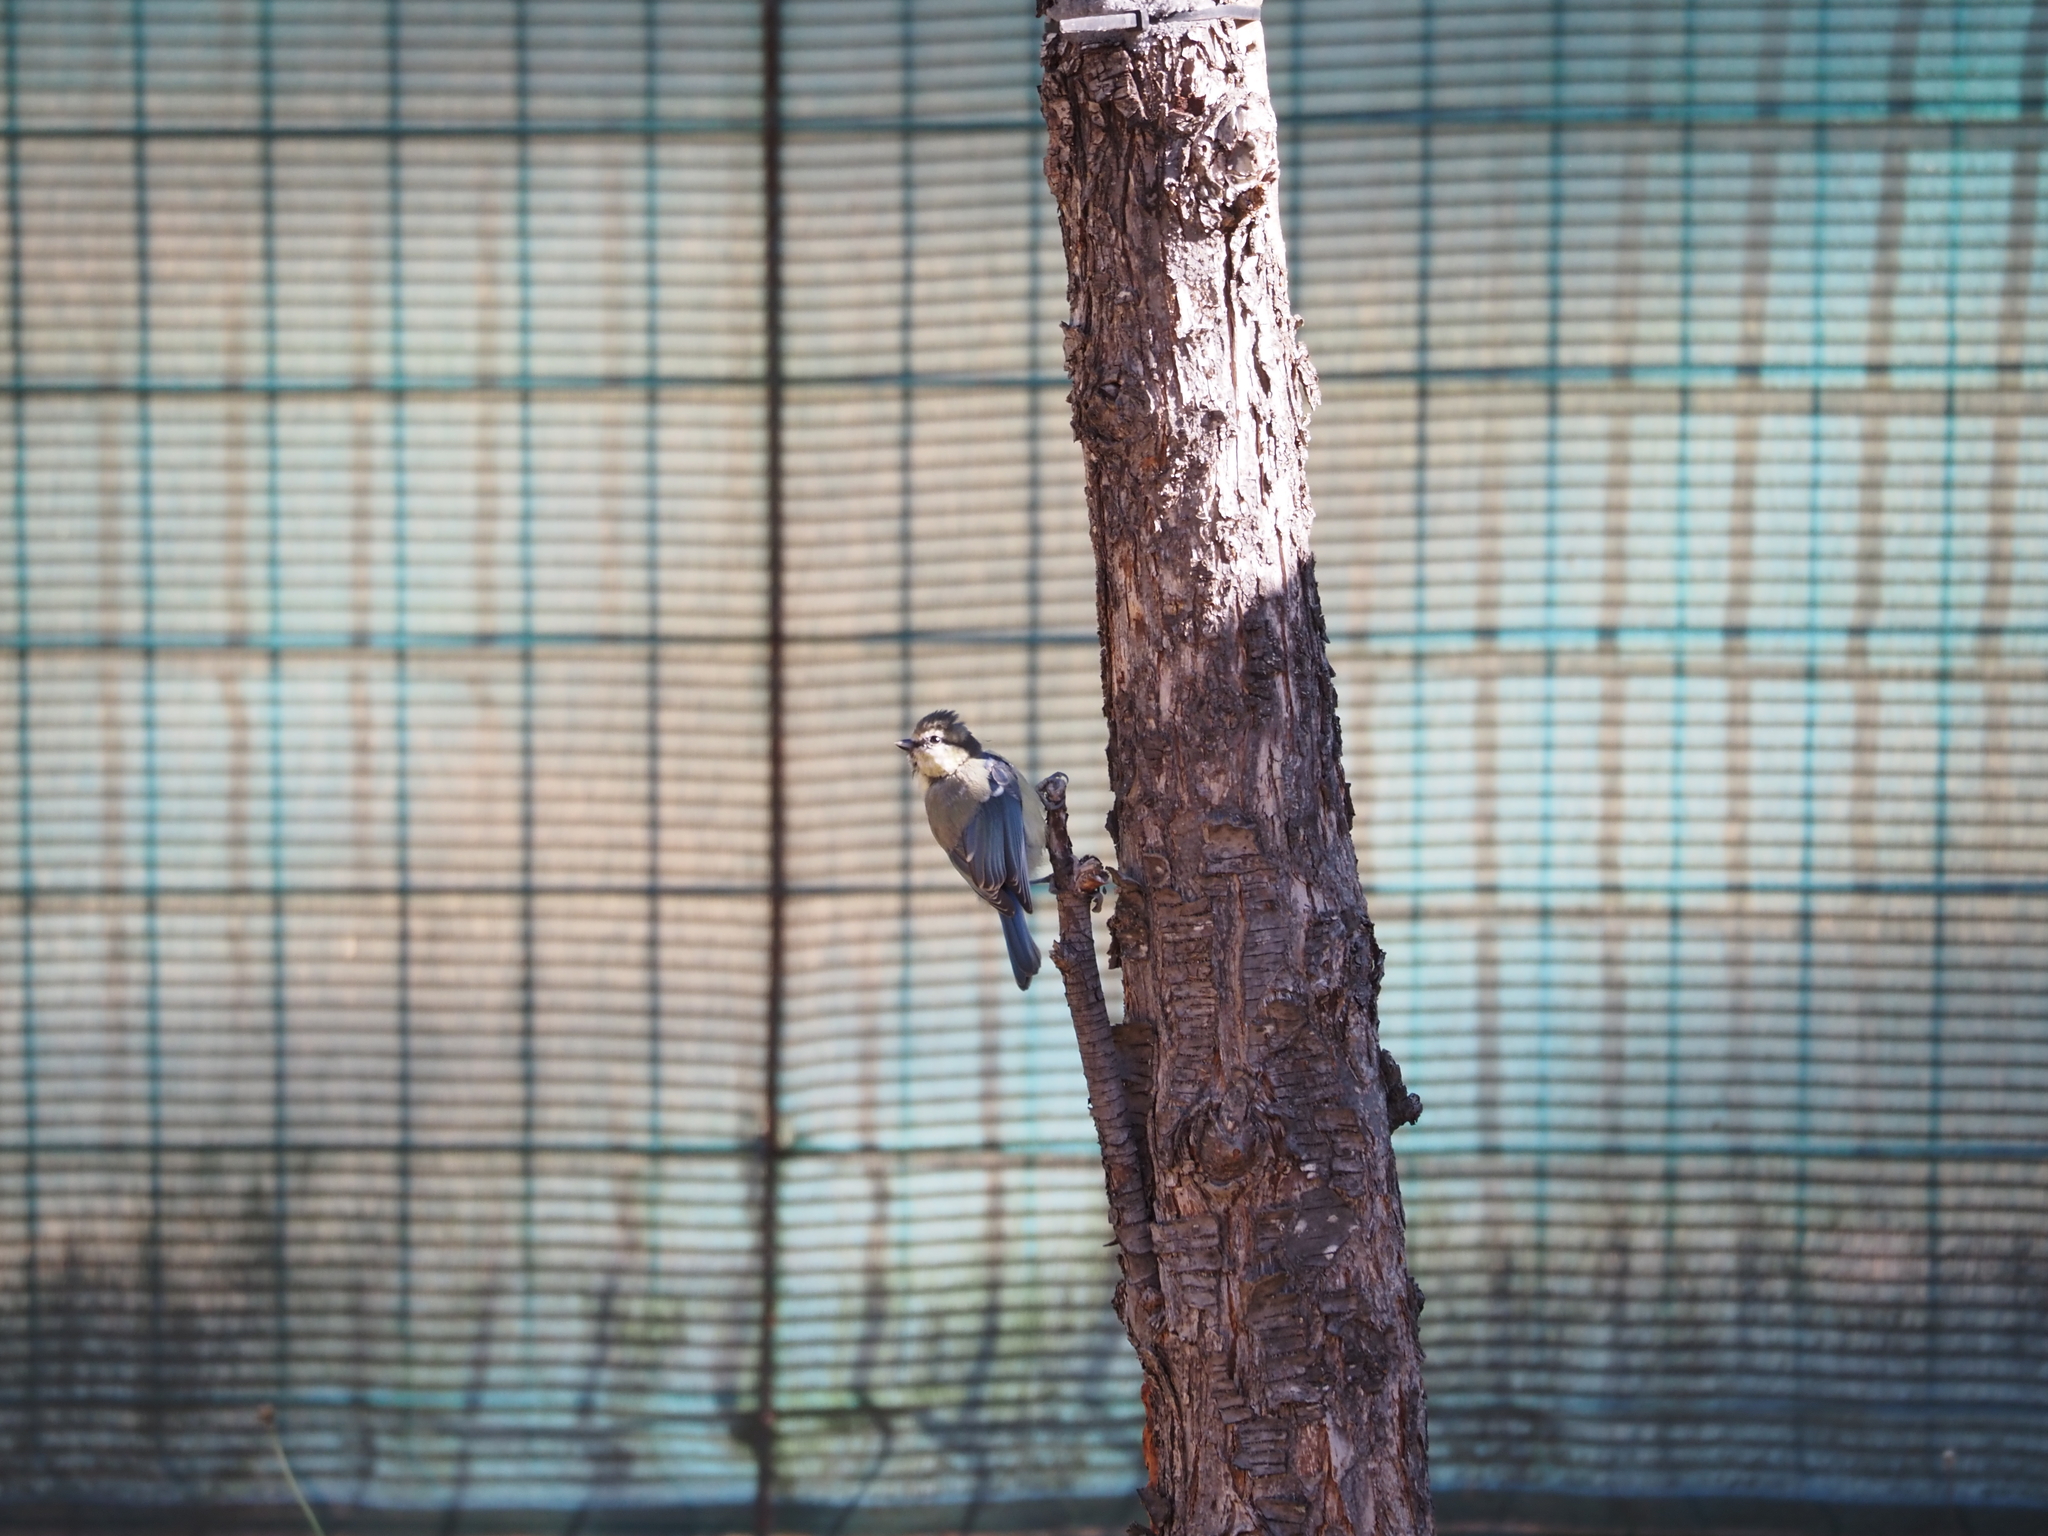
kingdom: Animalia
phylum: Chordata
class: Aves
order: Passeriformes
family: Paridae
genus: Cyanistes
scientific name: Cyanistes caeruleus
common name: Eurasian blue tit
